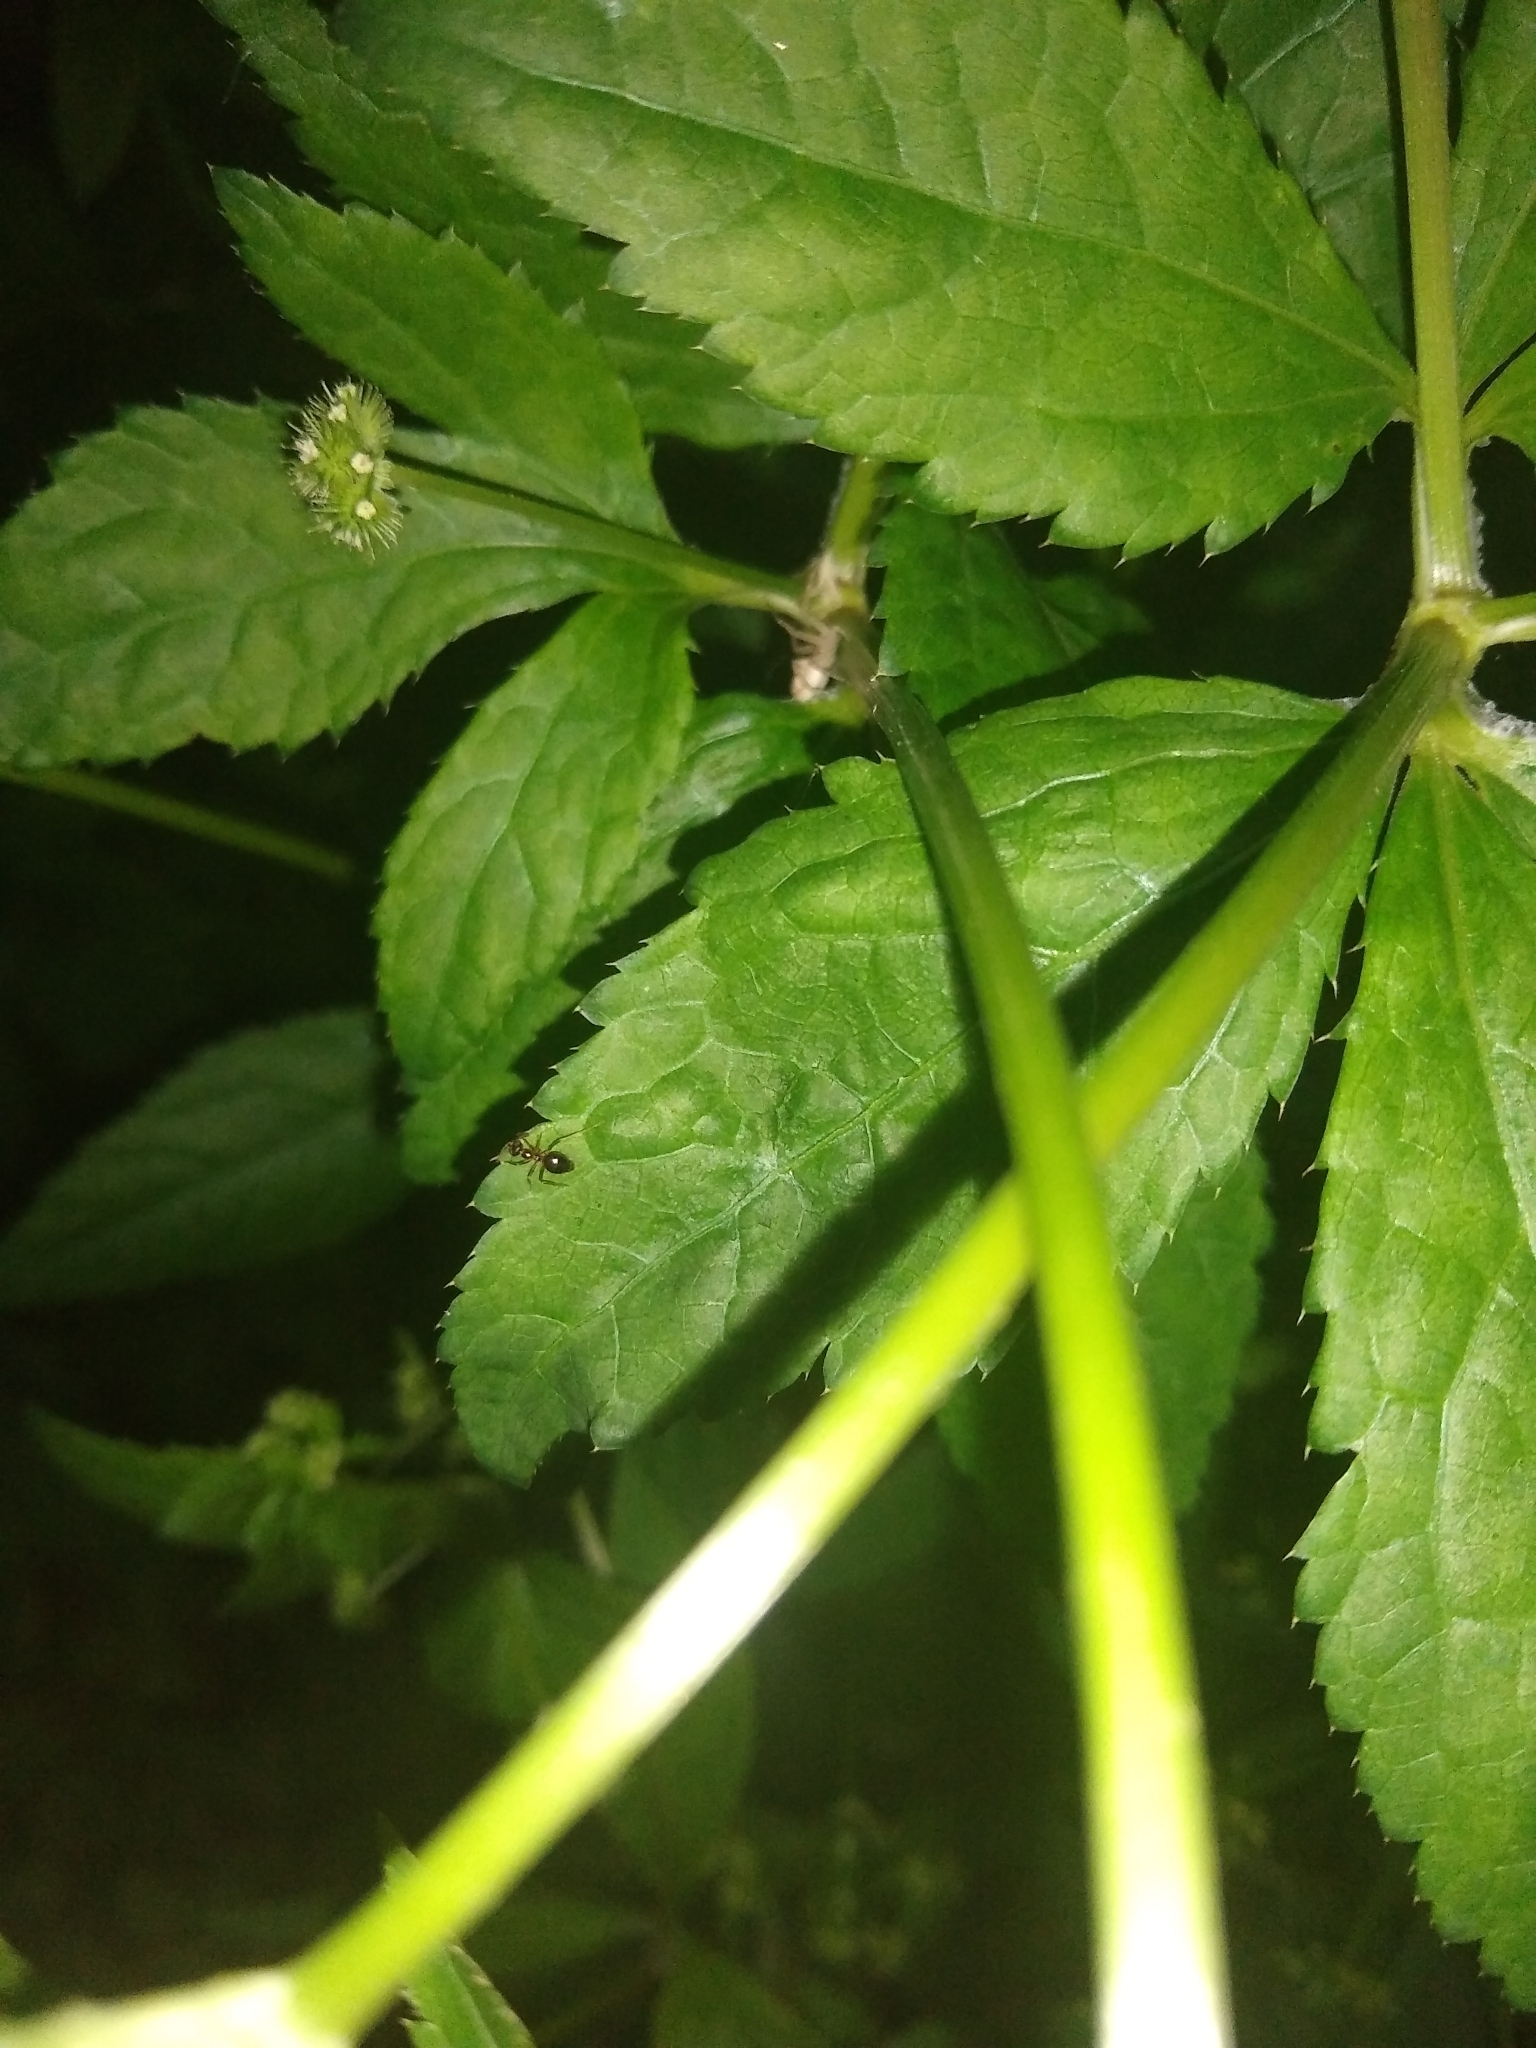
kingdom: Animalia
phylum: Arthropoda
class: Insecta
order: Hymenoptera
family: Formicidae
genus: Prenolepis
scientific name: Prenolepis imparis
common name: Small honey ant
